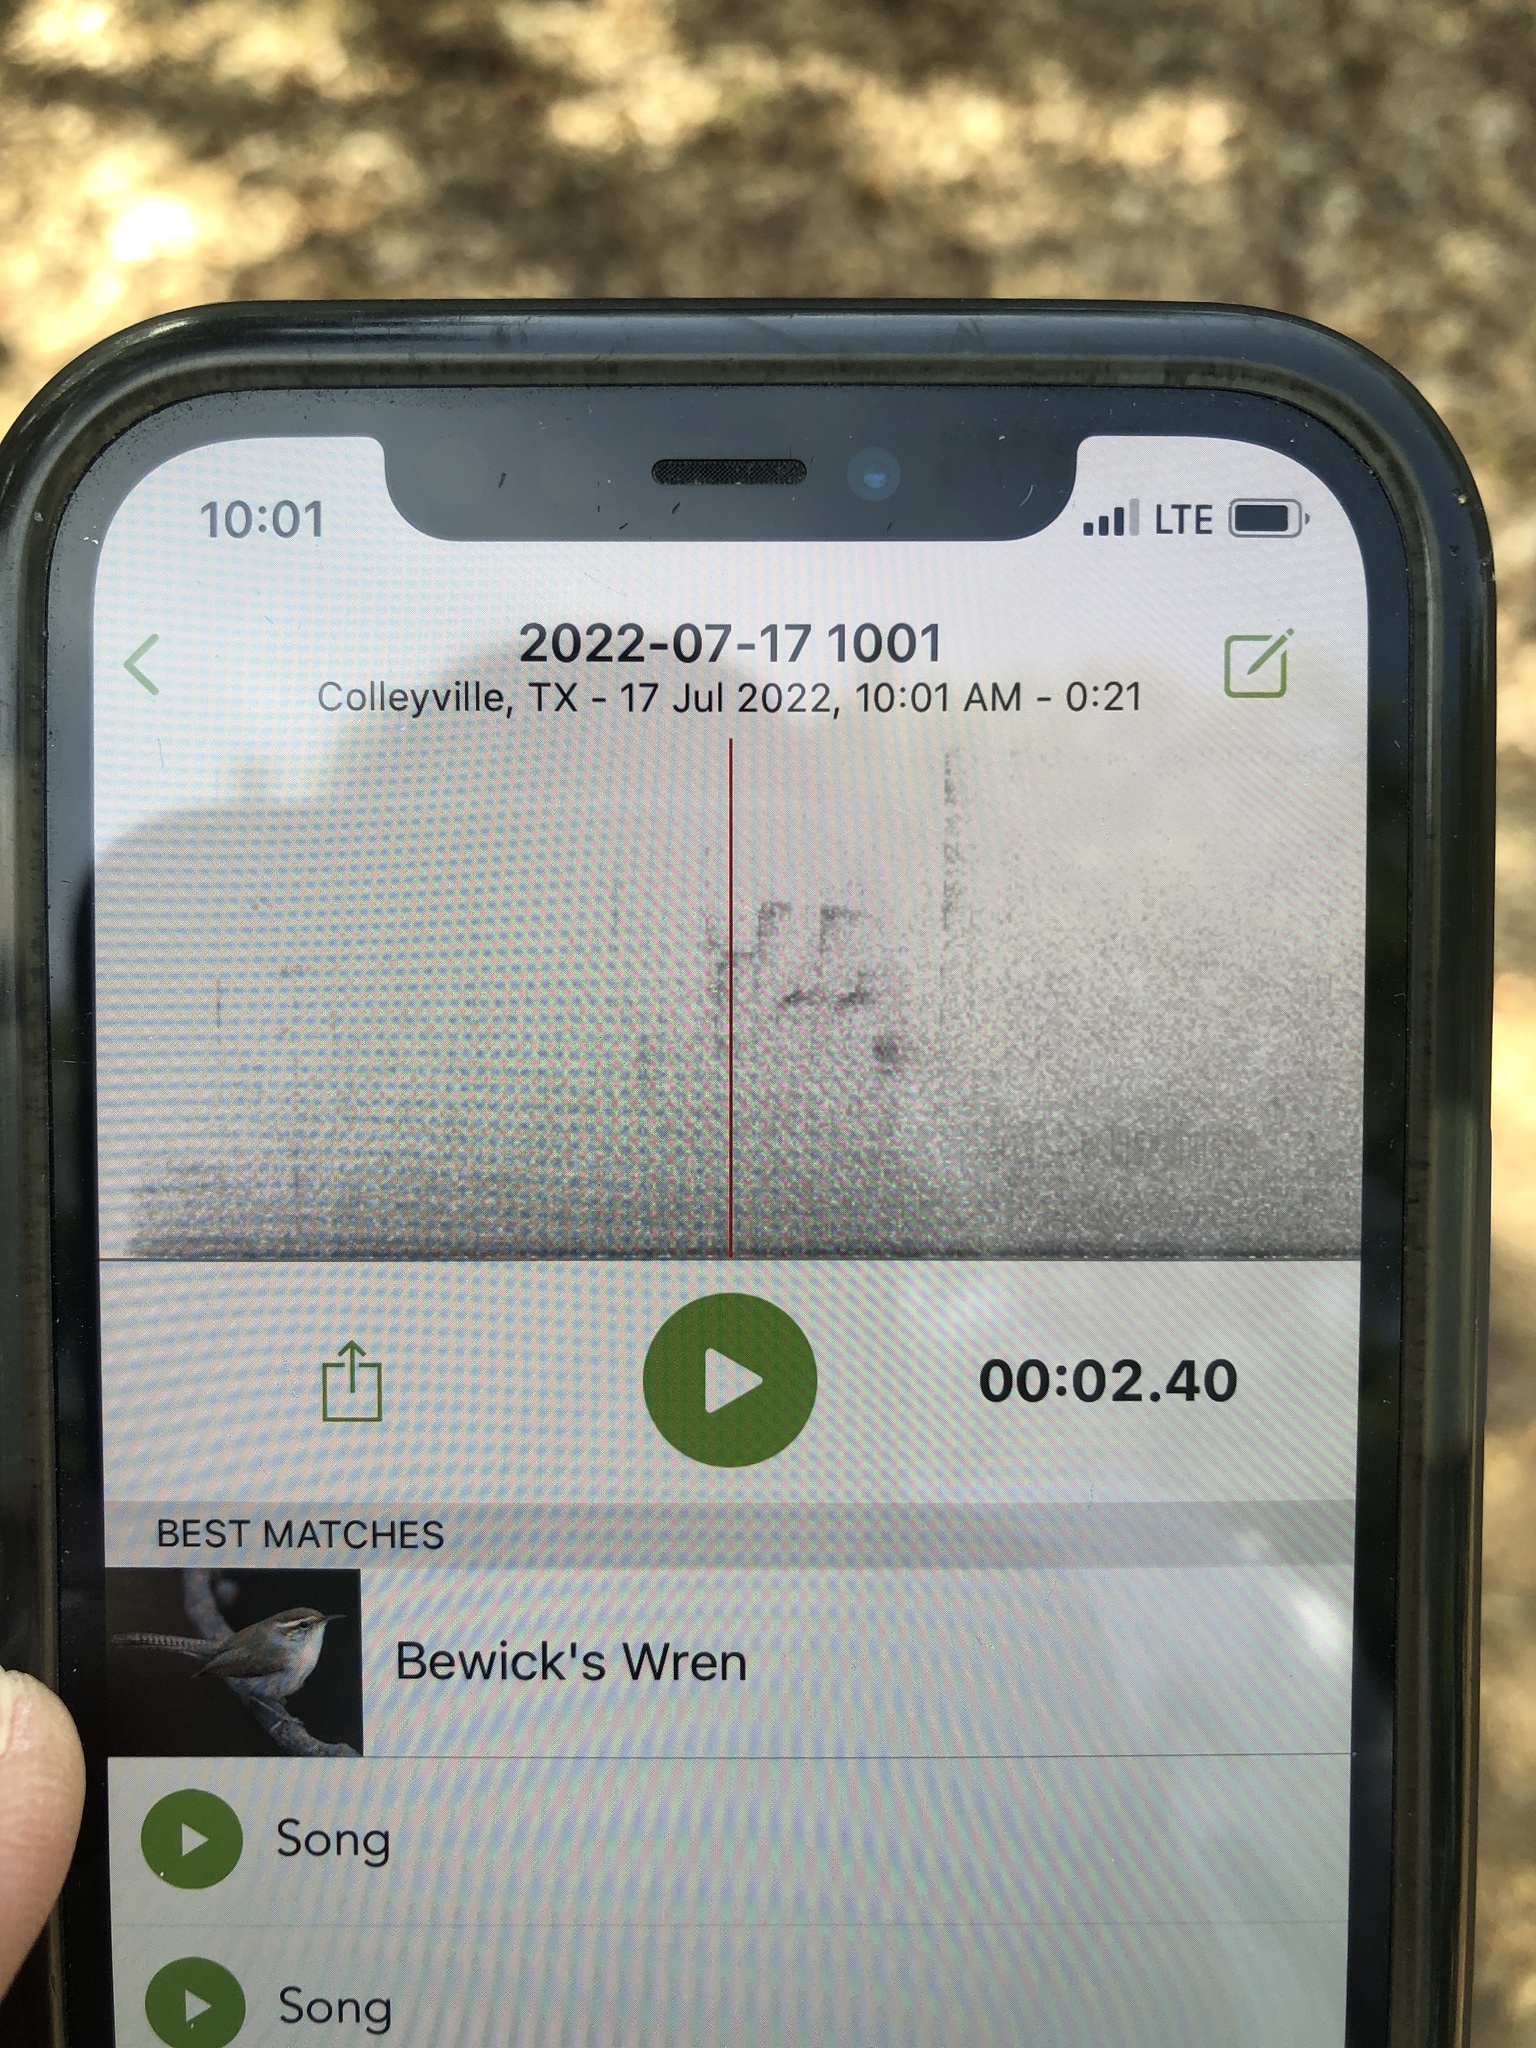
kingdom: Animalia
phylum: Chordata
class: Aves
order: Passeriformes
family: Troglodytidae
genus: Thryomanes
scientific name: Thryomanes bewickii
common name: Bewick's wren
